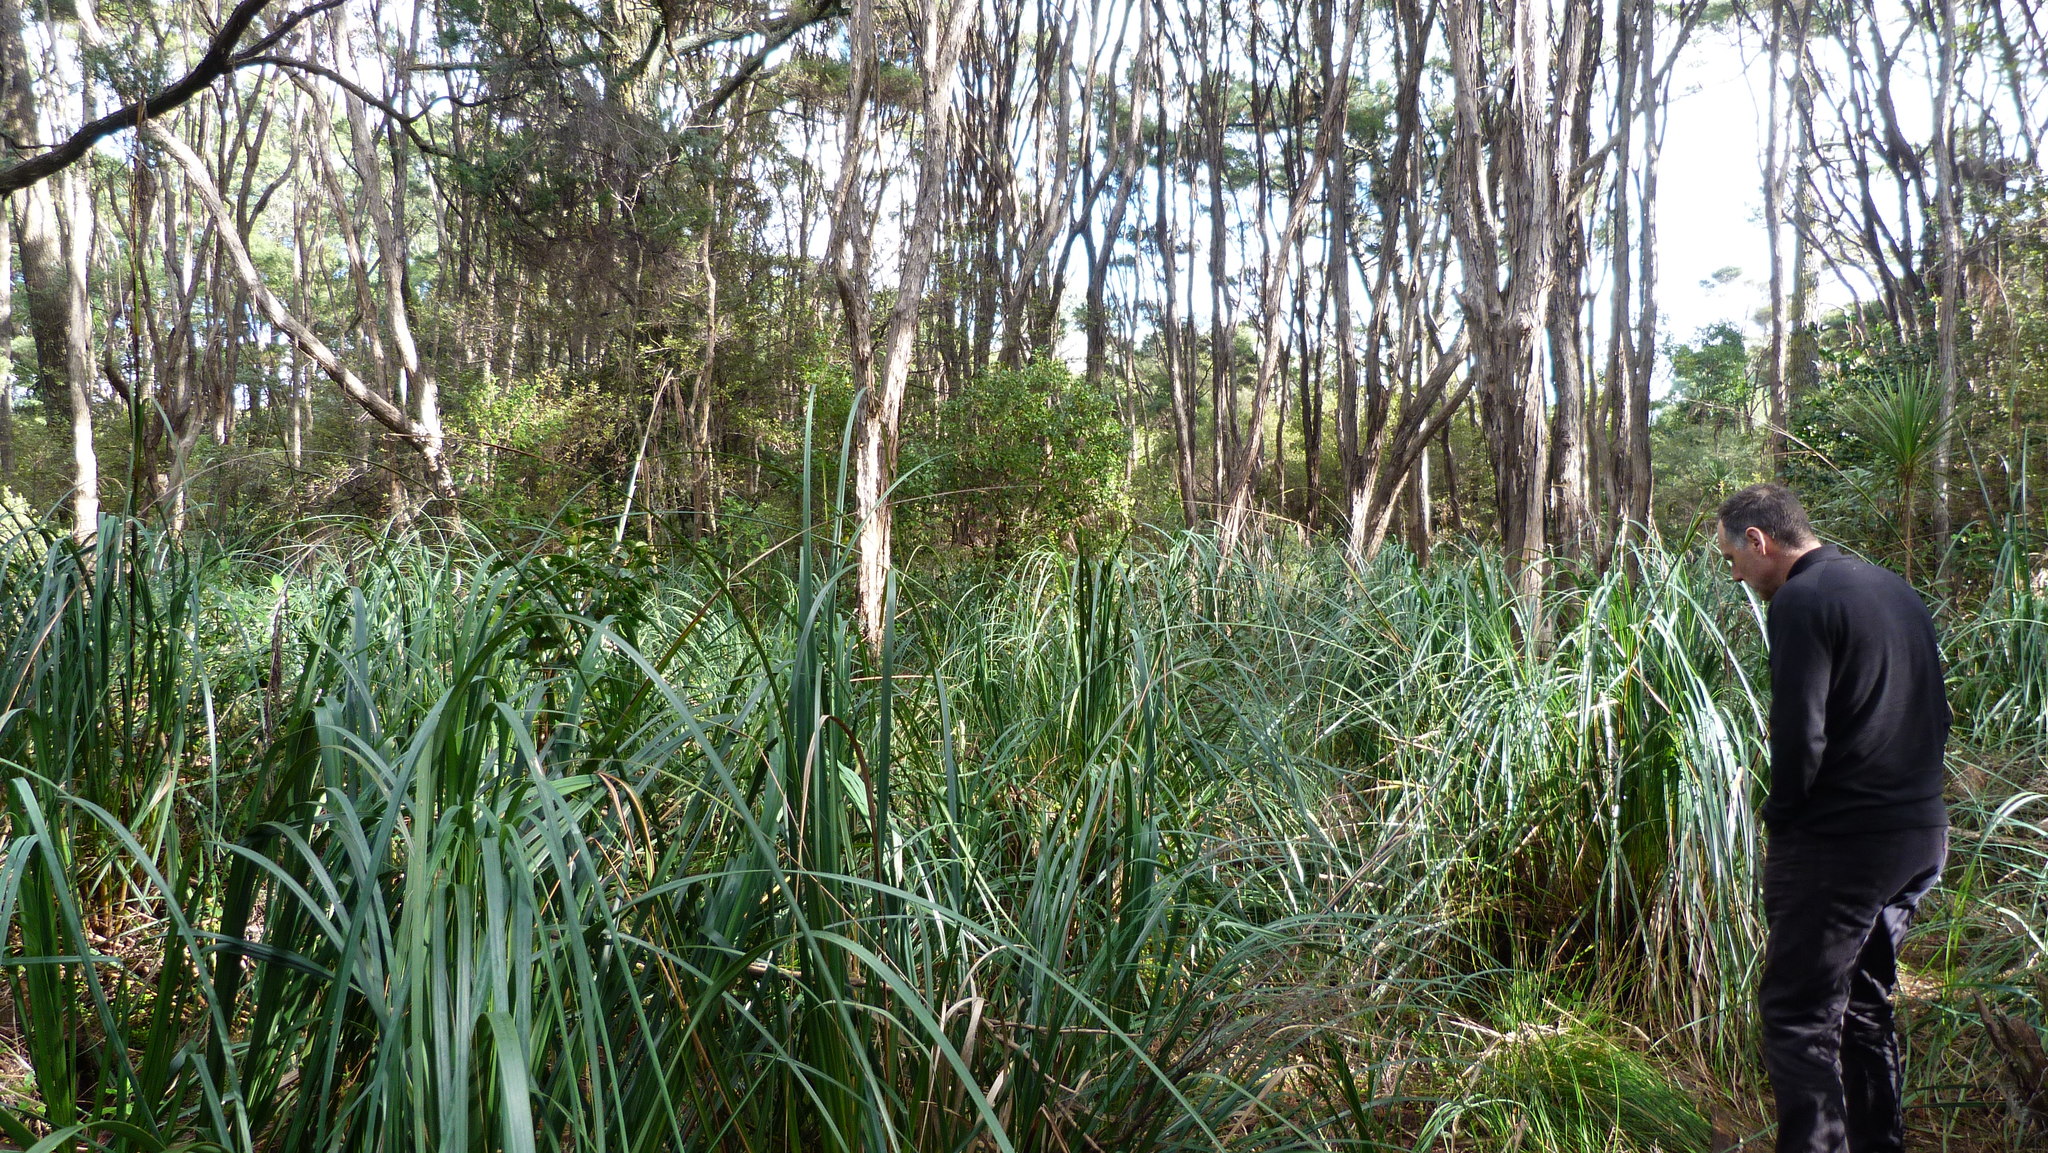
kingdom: Plantae
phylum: Tracheophyta
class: Liliopsida
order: Poales
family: Cyperaceae
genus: Gahnia
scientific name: Gahnia xanthocarpa
